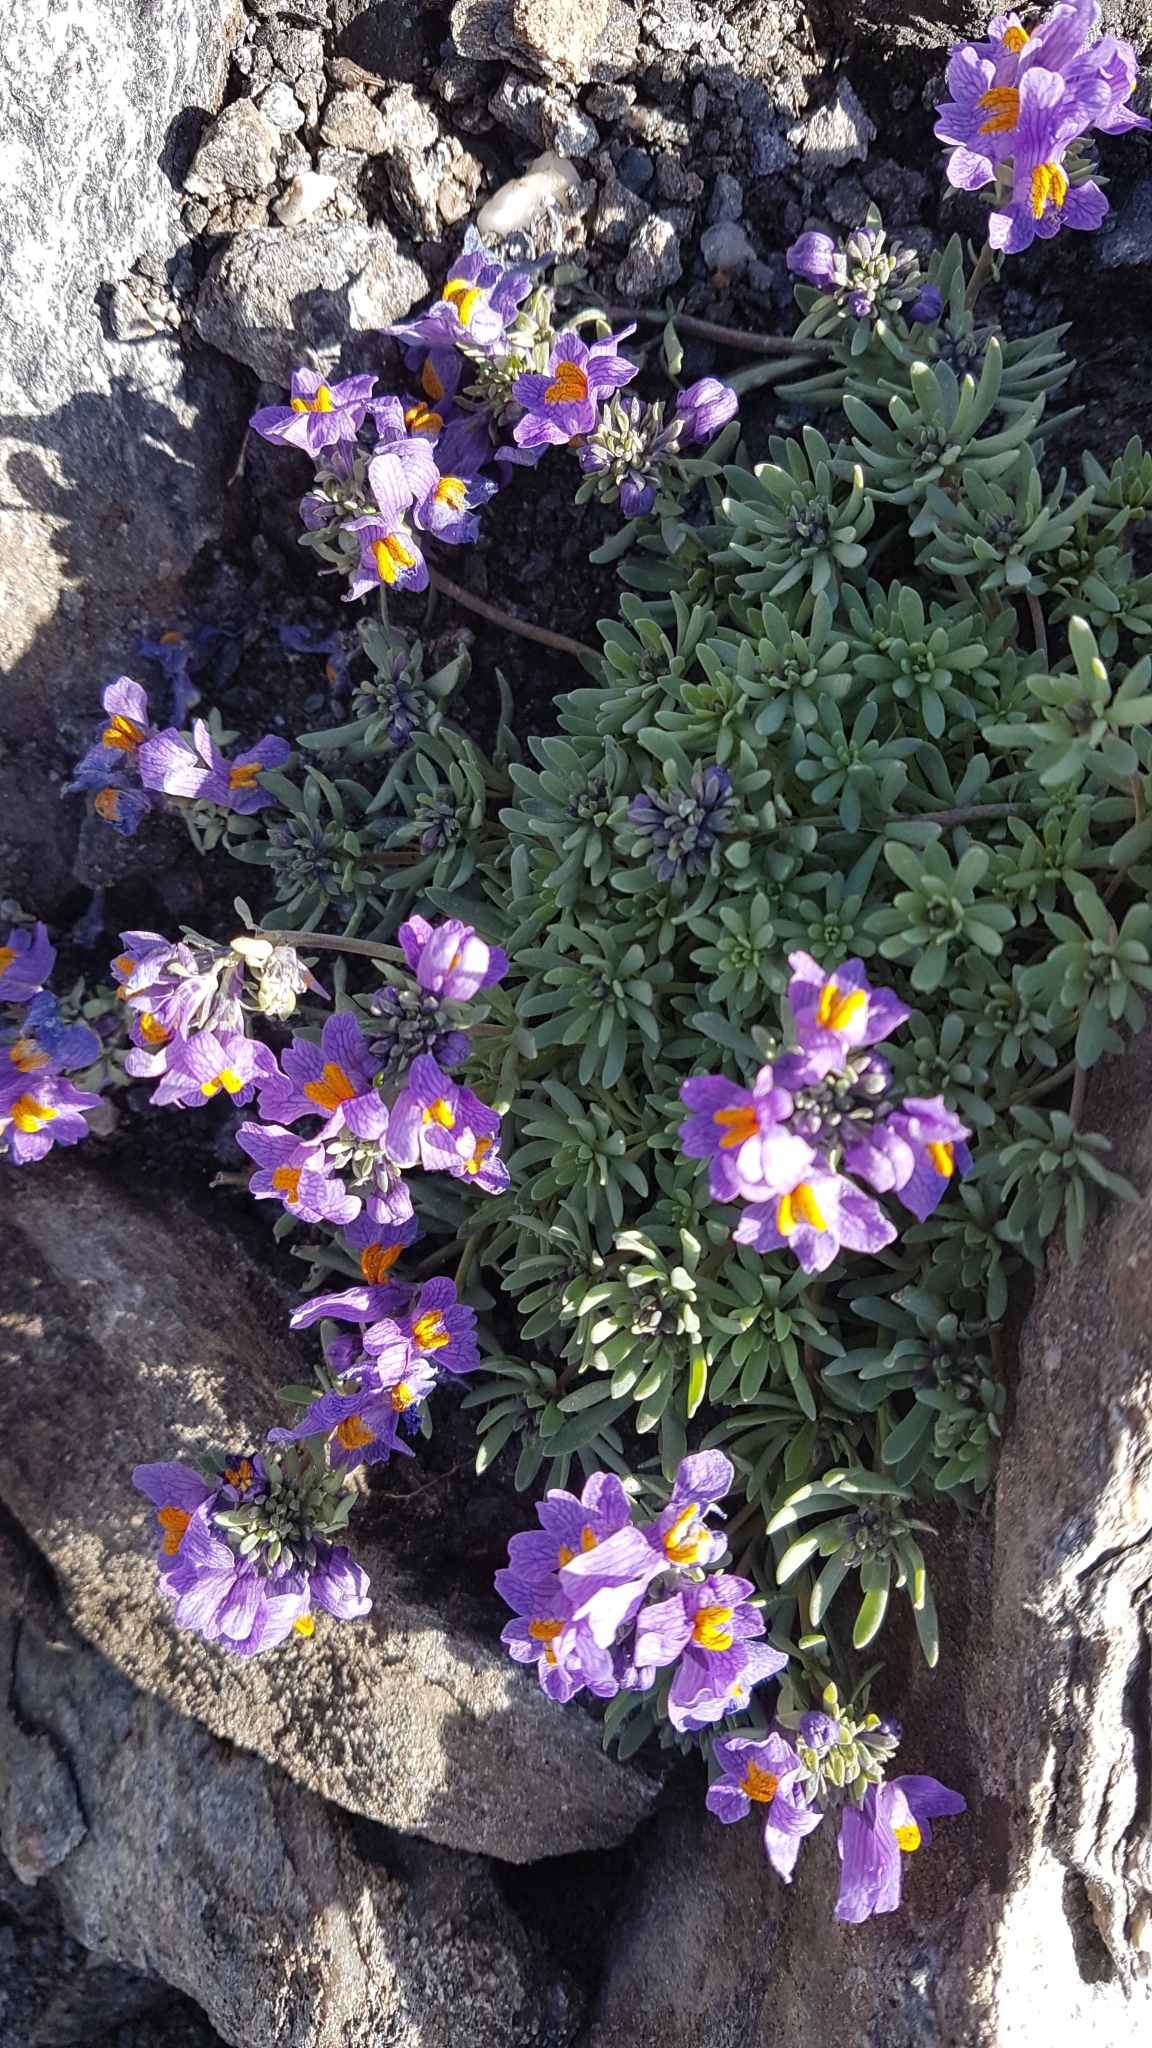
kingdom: Plantae
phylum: Tracheophyta
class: Magnoliopsida
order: Lamiales
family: Plantaginaceae
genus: Linaria
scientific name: Linaria alpina
